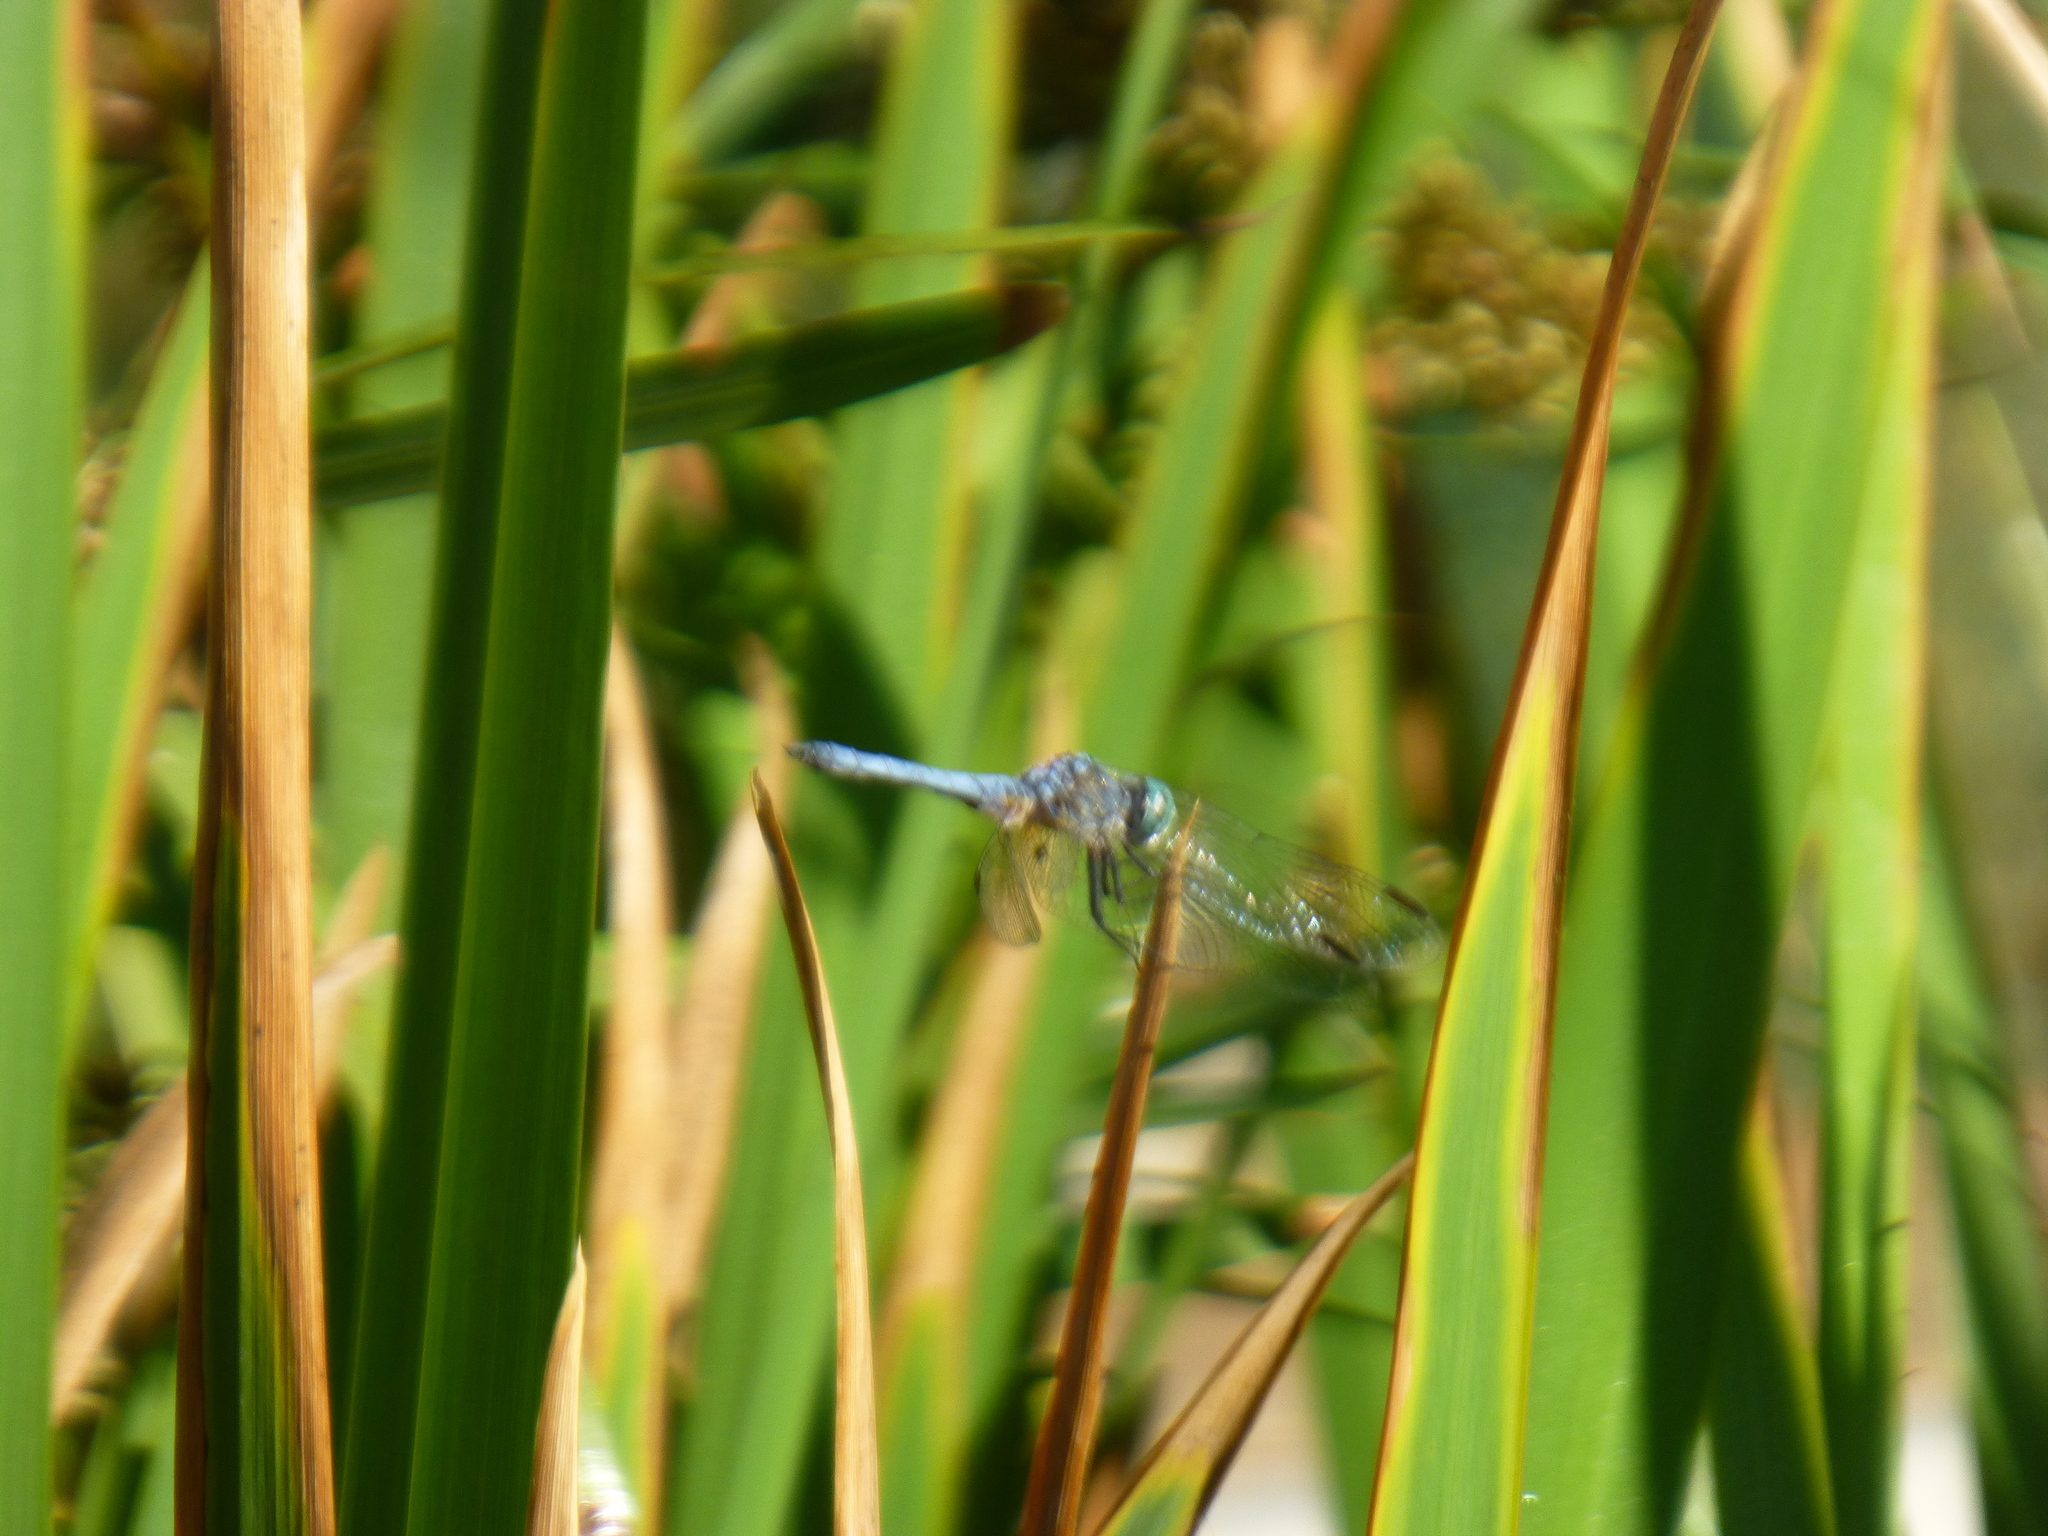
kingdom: Animalia
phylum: Arthropoda
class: Insecta
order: Odonata
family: Libellulidae
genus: Pachydiplax
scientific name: Pachydiplax longipennis
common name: Blue dasher
